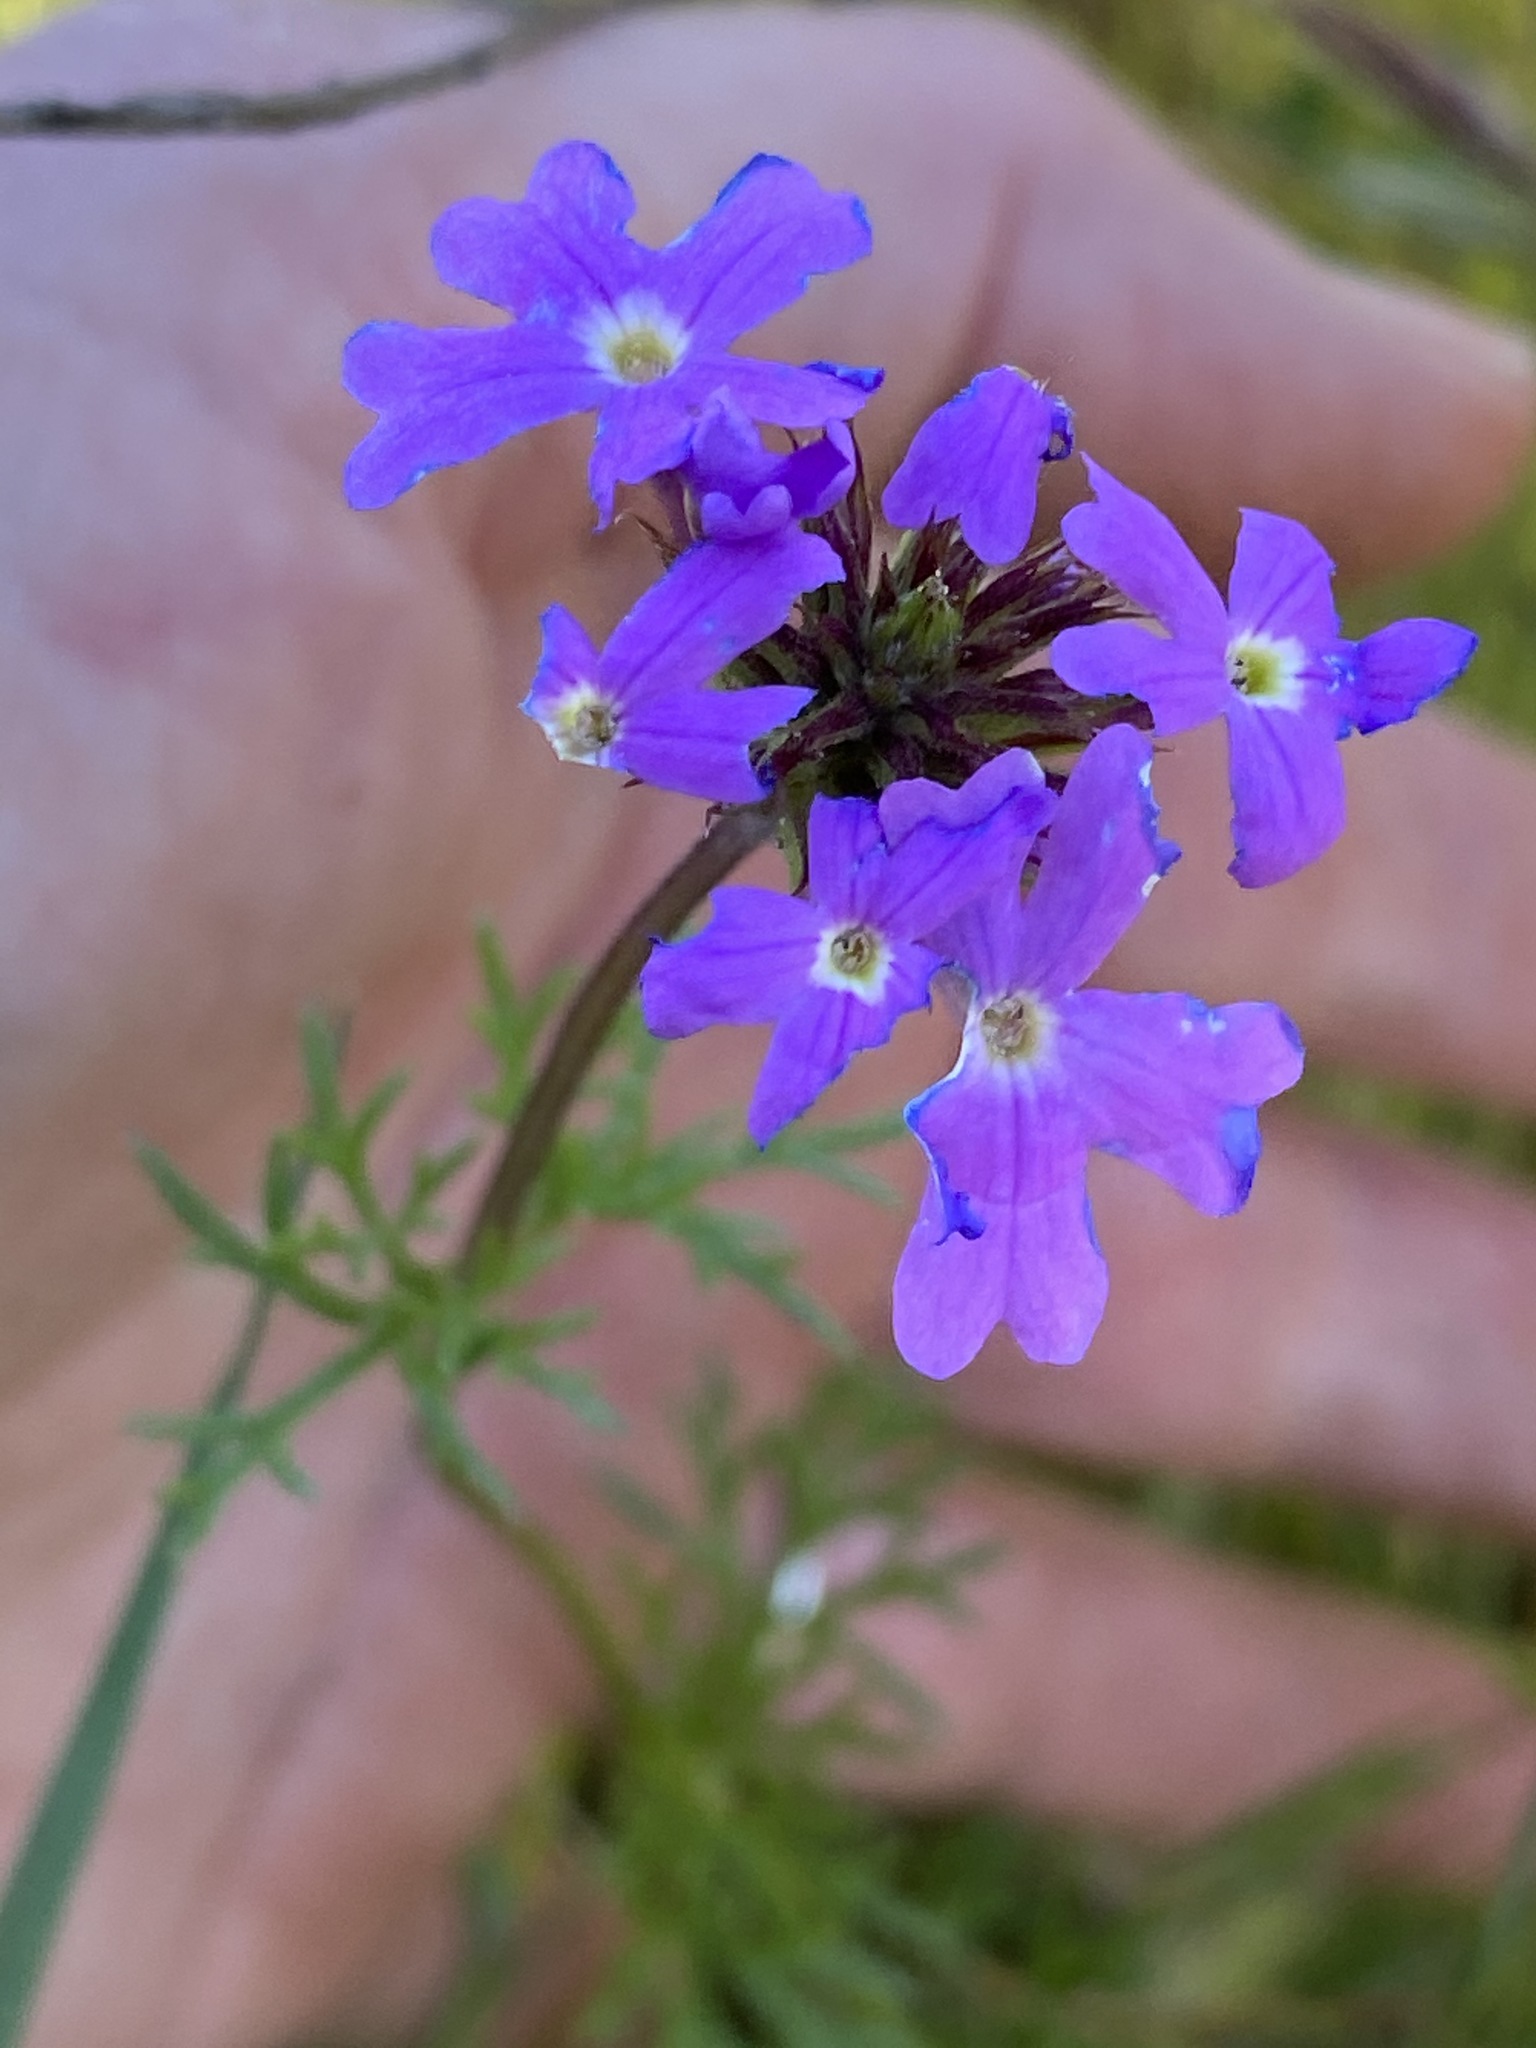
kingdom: Plantae
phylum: Tracheophyta
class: Magnoliopsida
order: Lamiales
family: Verbenaceae
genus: Verbena
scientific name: Verbena
